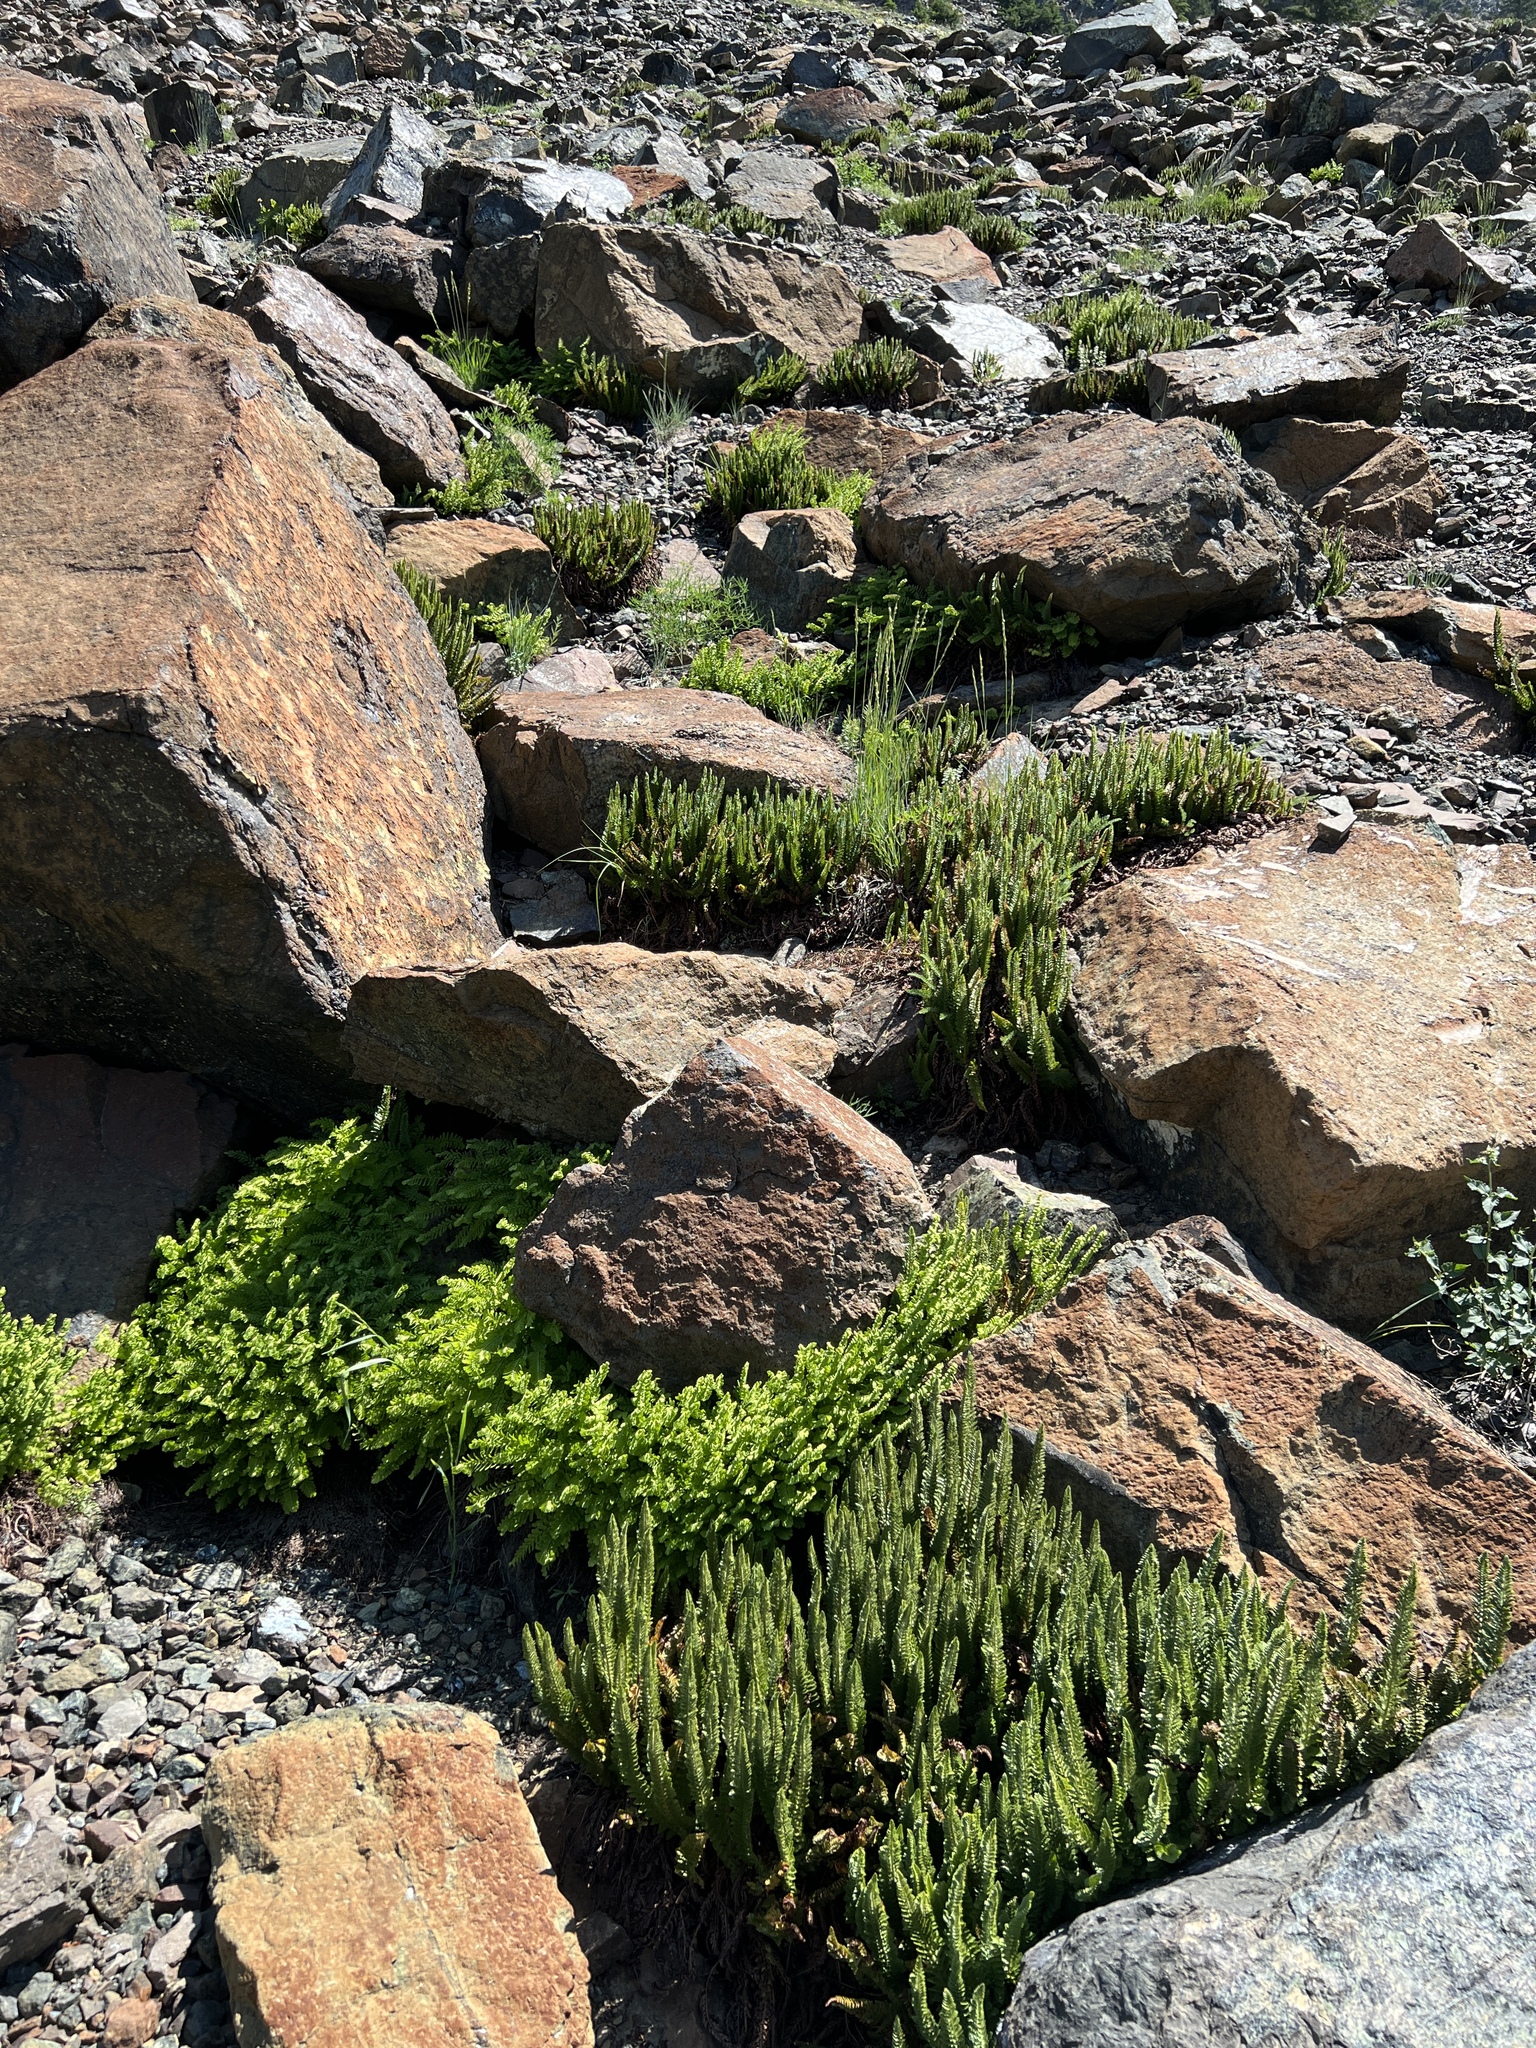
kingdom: Plantae
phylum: Tracheophyta
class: Polypodiopsida
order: Polypodiales
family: Dryopteridaceae
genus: Polystichum
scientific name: Polystichum lemmonii
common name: Lemmon's holly fern
